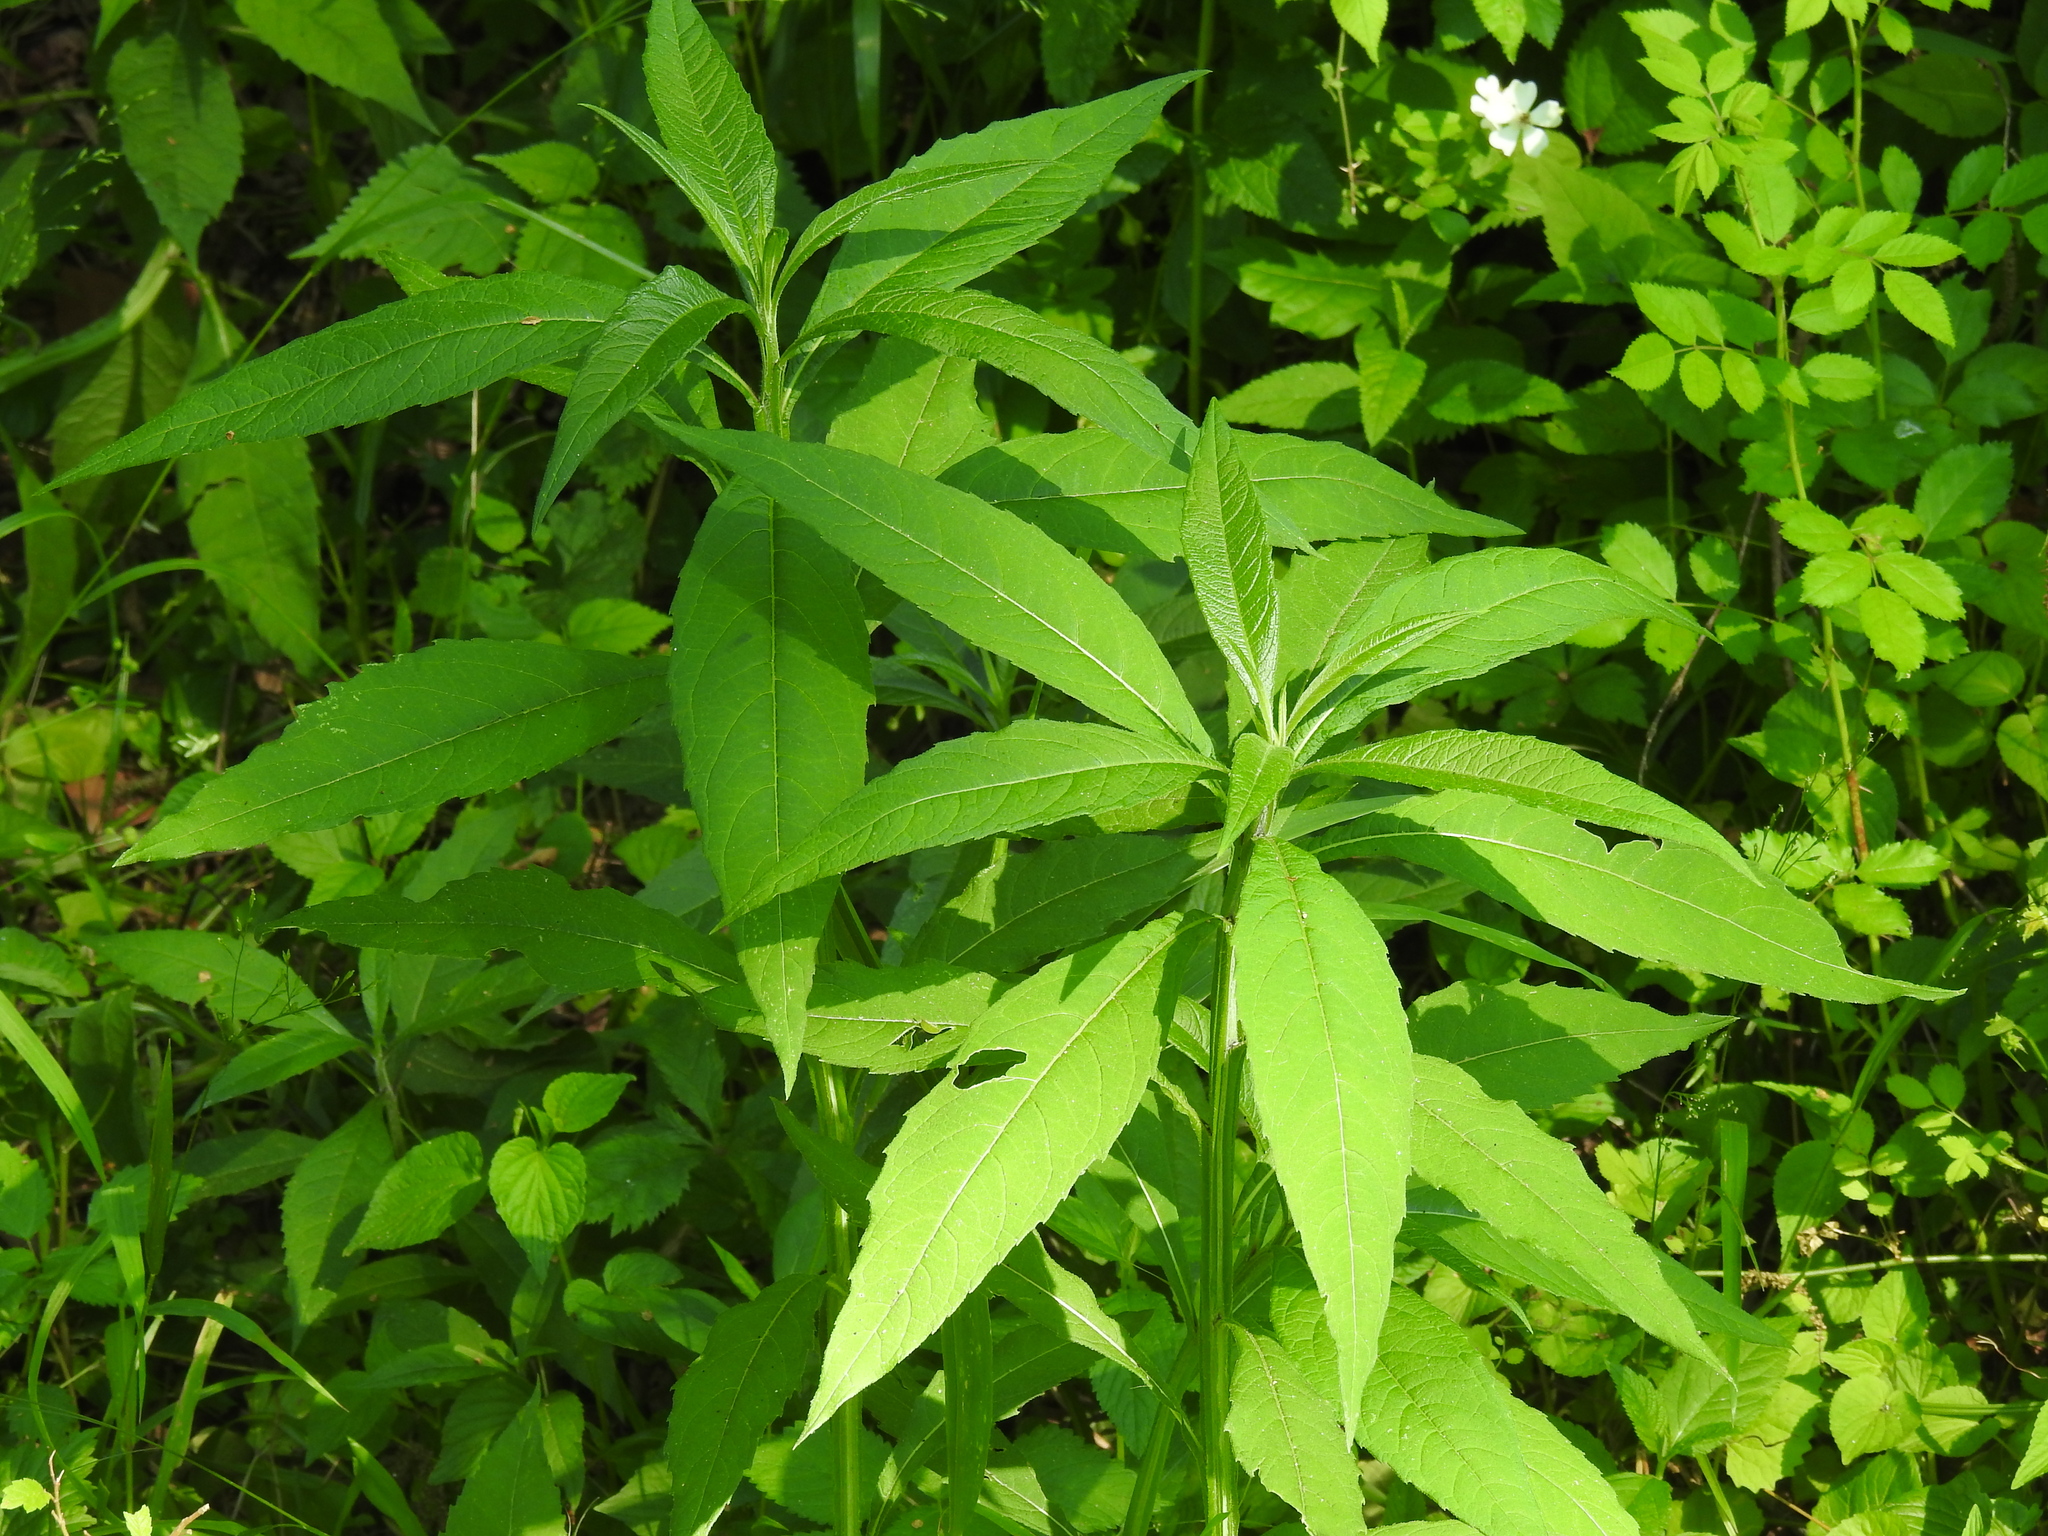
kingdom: Plantae
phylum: Tracheophyta
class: Magnoliopsida
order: Asterales
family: Asteraceae
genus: Verbesina
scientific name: Verbesina alternifolia
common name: Wingstem
